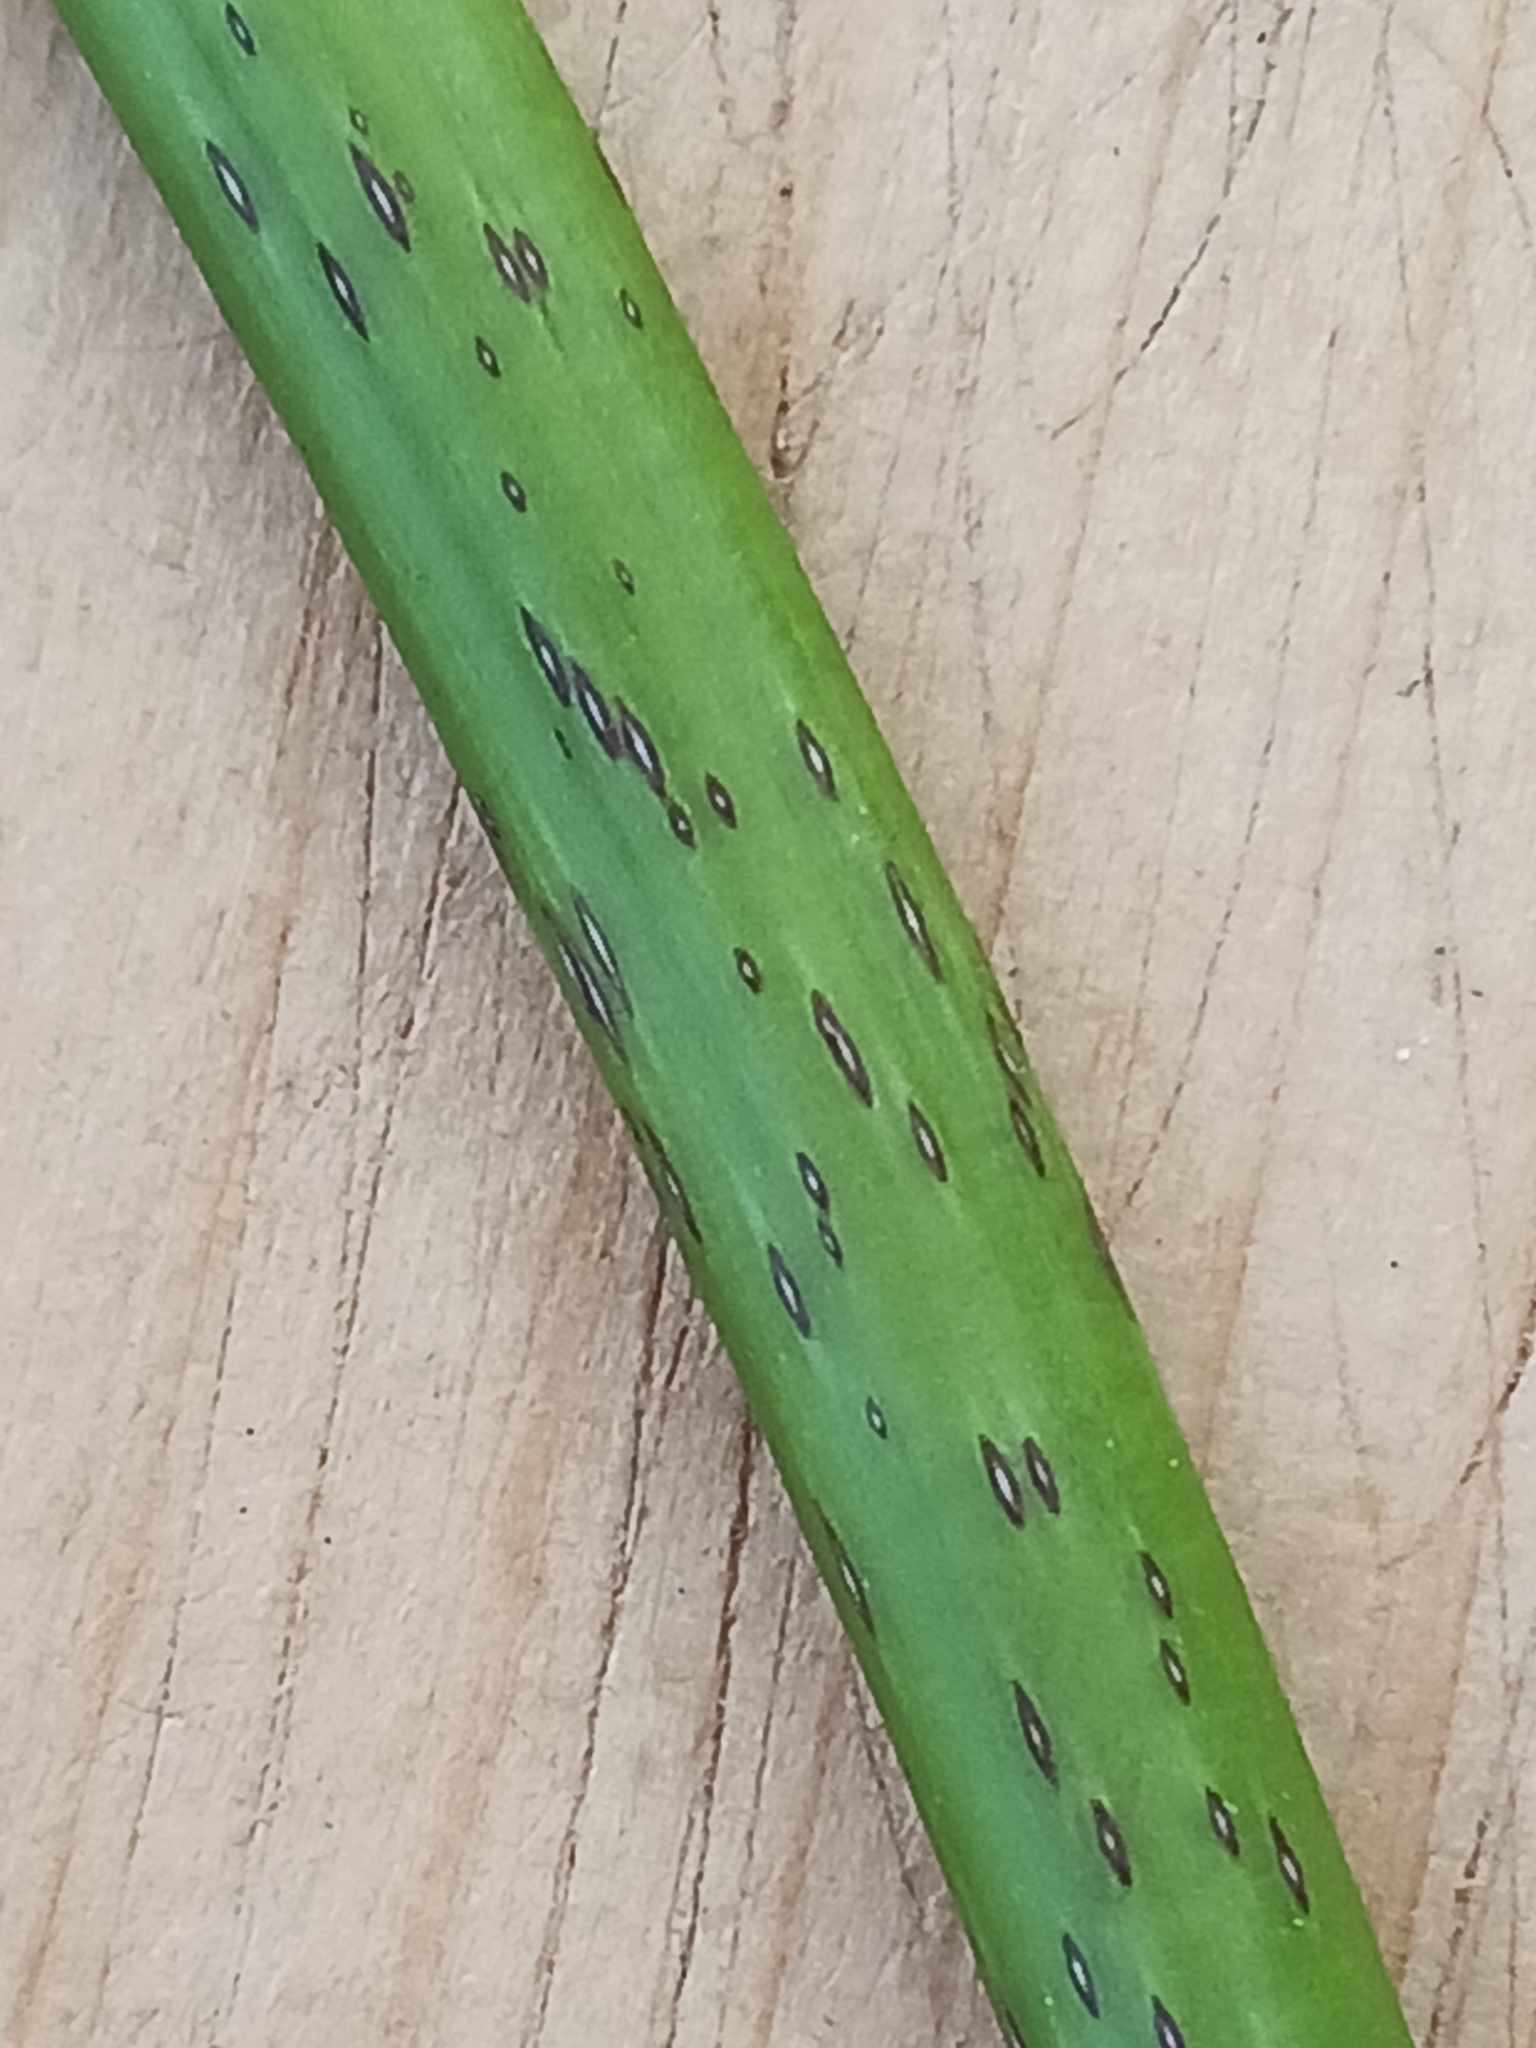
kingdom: Plantae
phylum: Tracheophyta
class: Magnoliopsida
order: Lamiales
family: Oleaceae
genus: Fraxinus
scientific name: Fraxinus excelsior
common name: European ash
